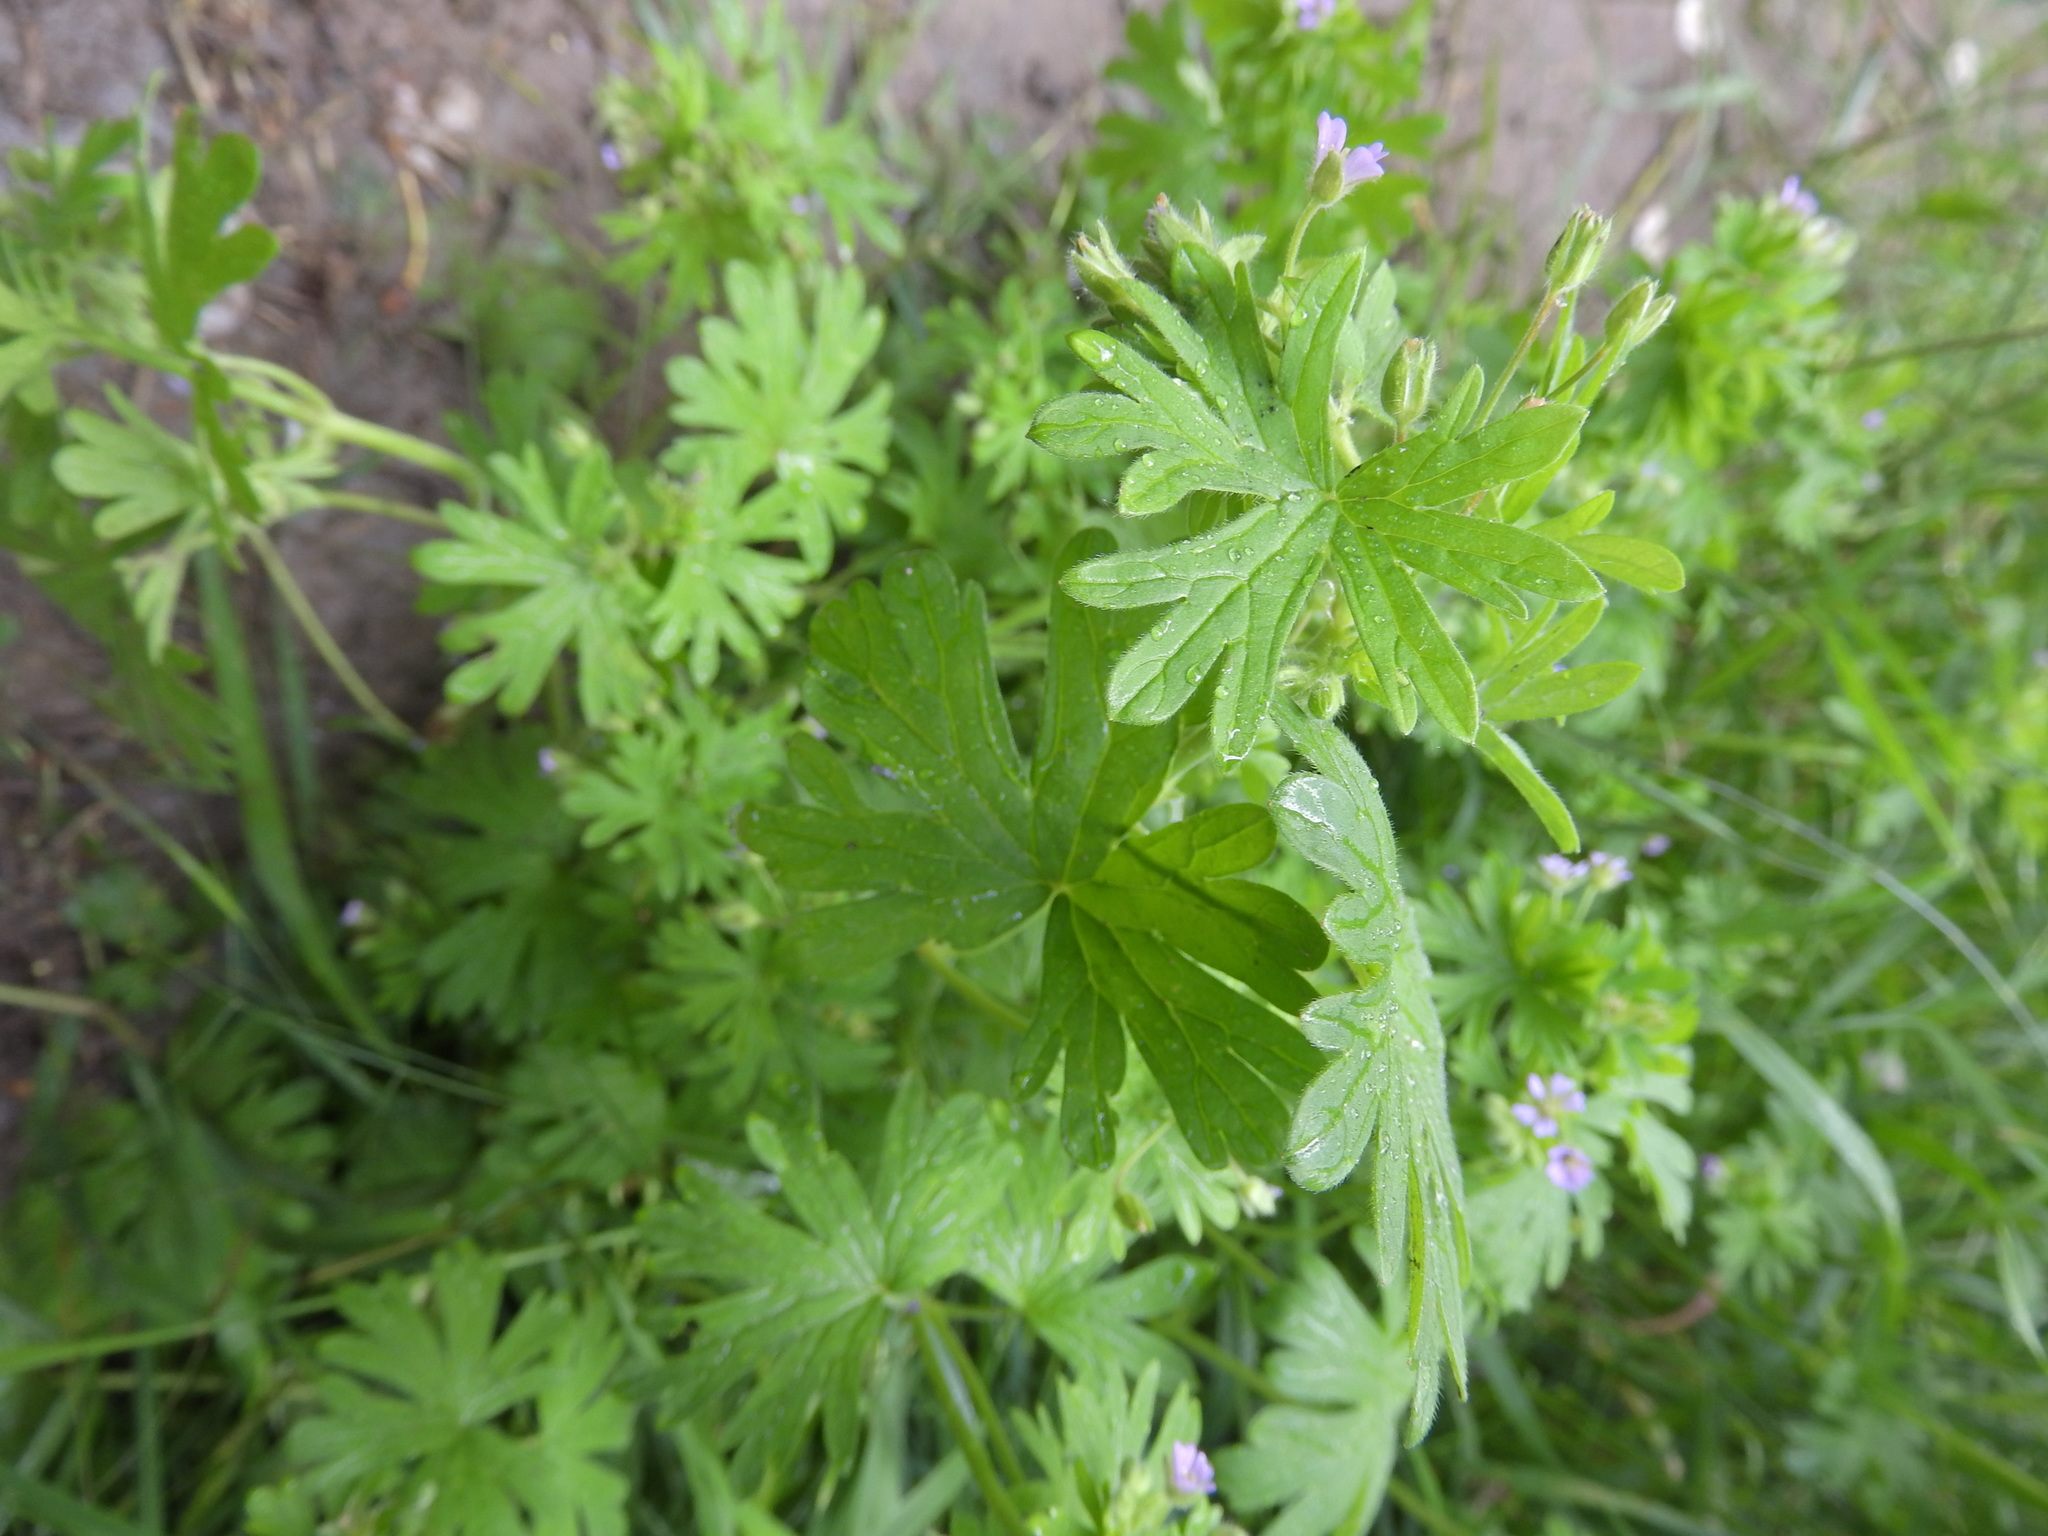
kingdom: Plantae
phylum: Tracheophyta
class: Magnoliopsida
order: Geraniales
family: Geraniaceae
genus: Geranium
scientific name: Geranium pusillum
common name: Small geranium
